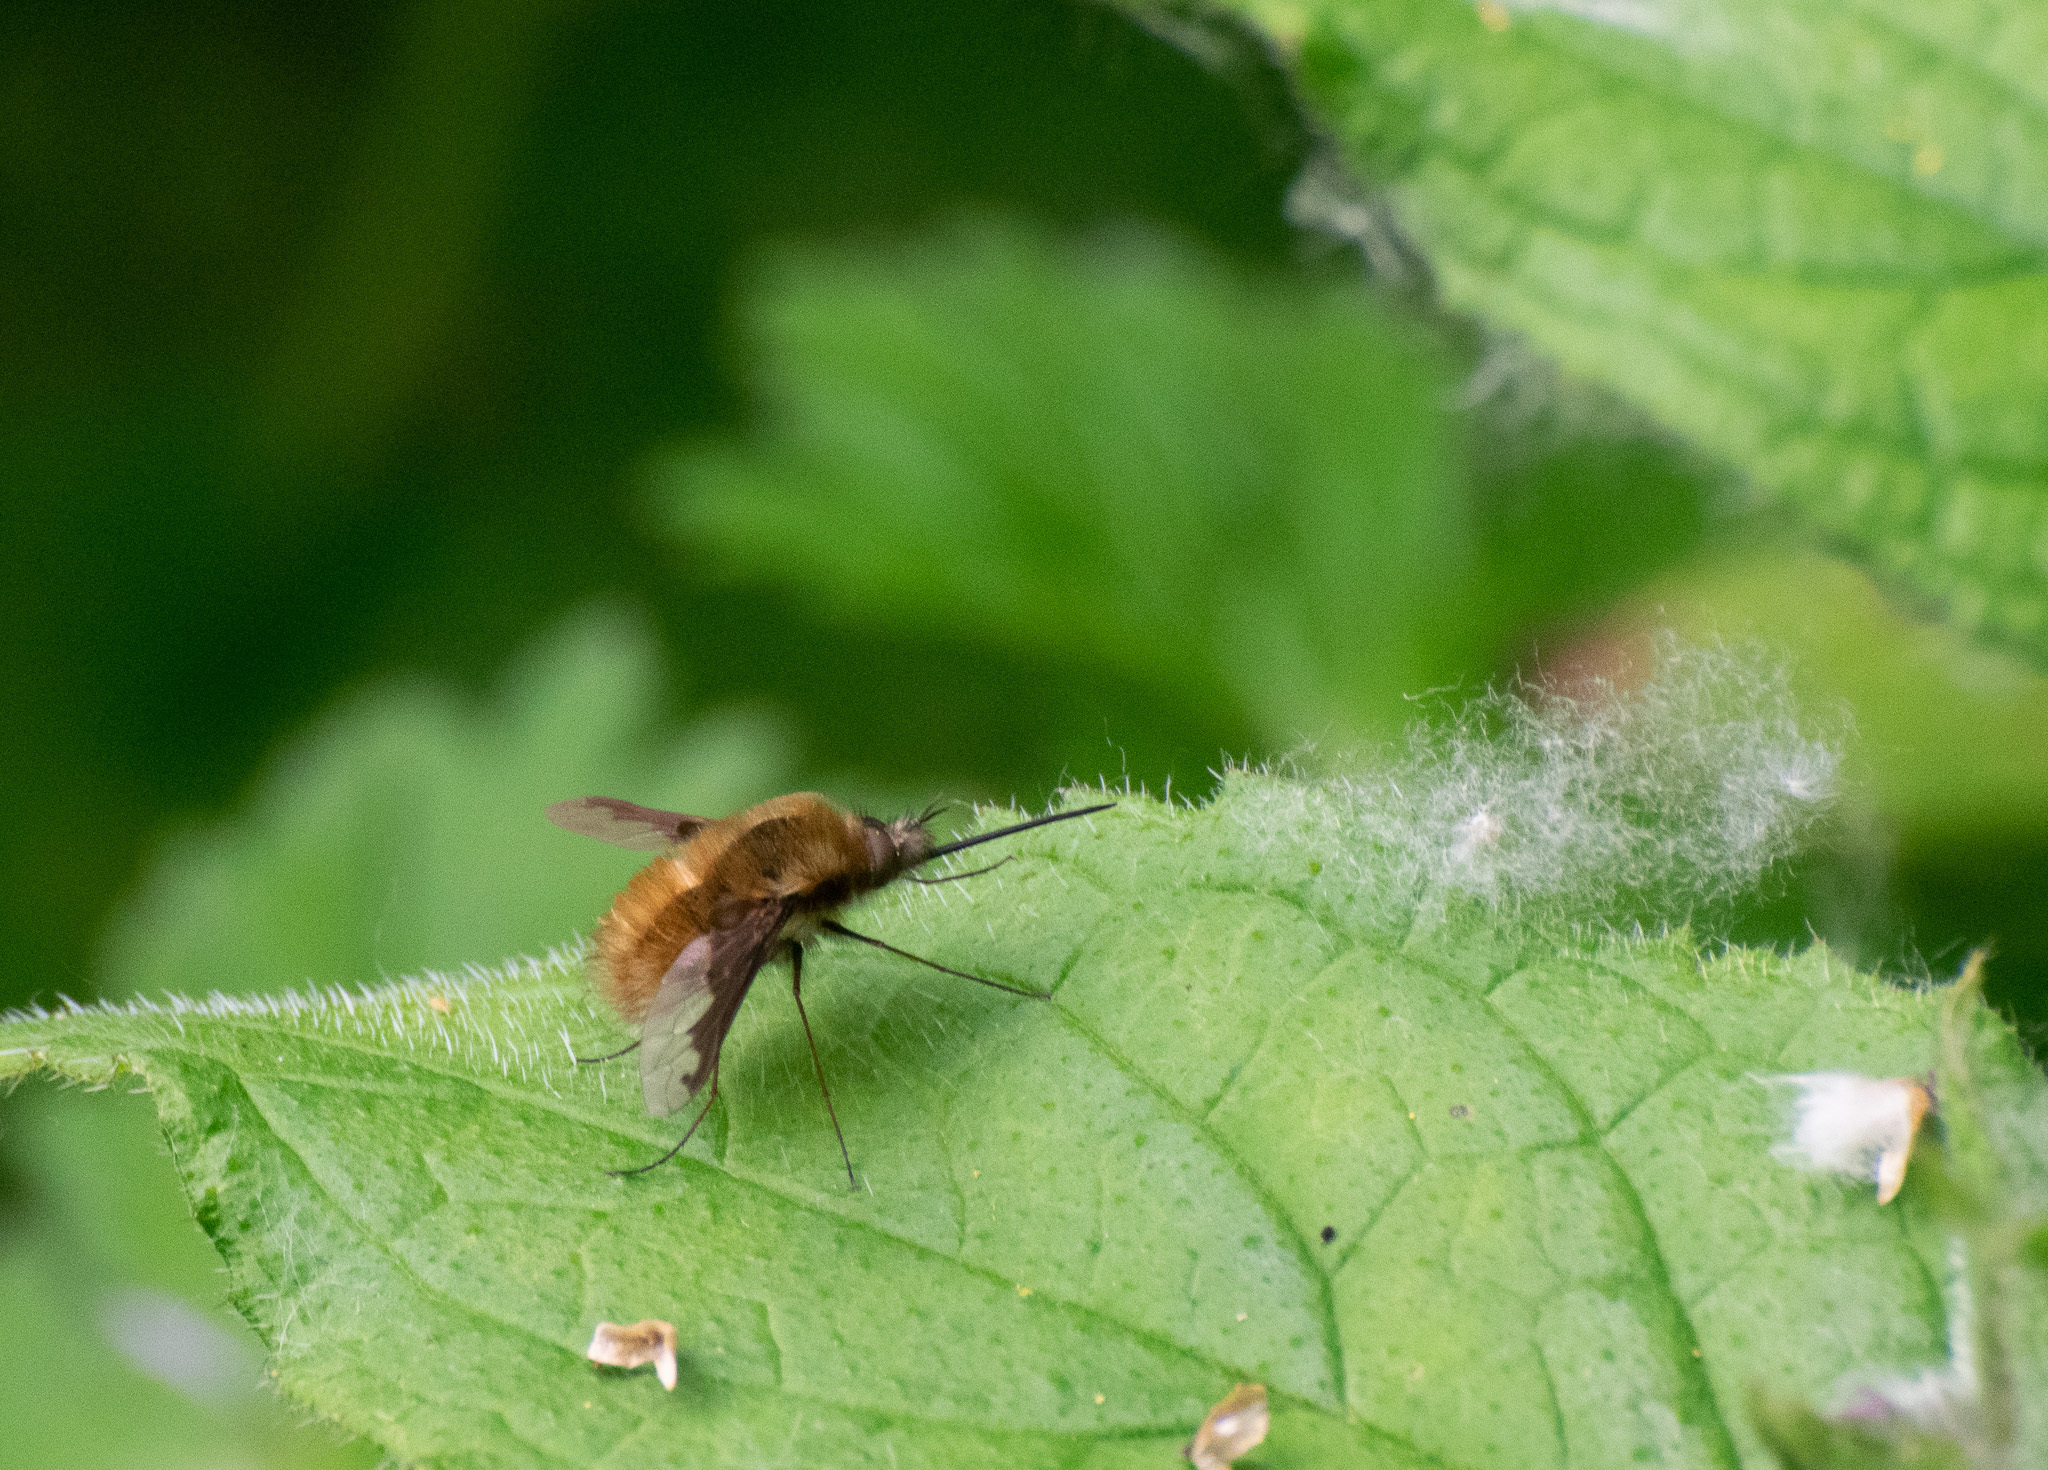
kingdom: Animalia
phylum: Arthropoda
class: Insecta
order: Diptera
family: Bombyliidae
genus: Bombylius
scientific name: Bombylius major
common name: Bee fly
